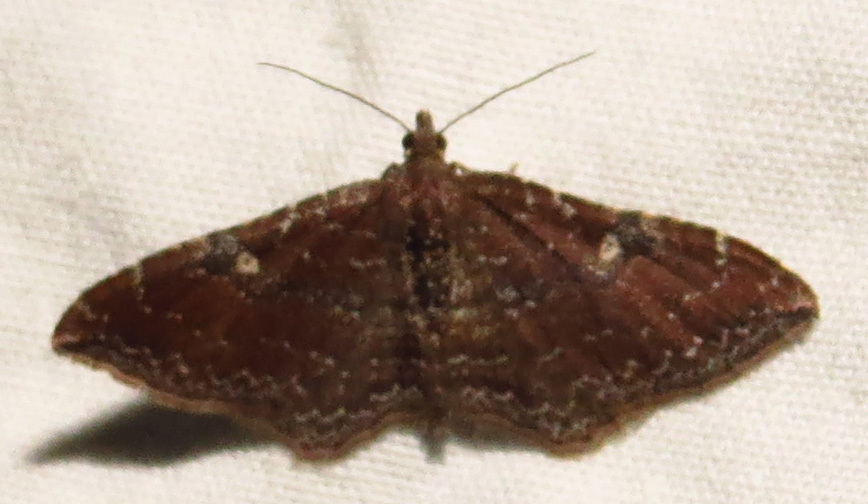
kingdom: Animalia
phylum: Arthropoda
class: Insecta
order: Lepidoptera
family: Geometridae
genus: Orthonama
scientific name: Orthonama obstipata
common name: The gem
